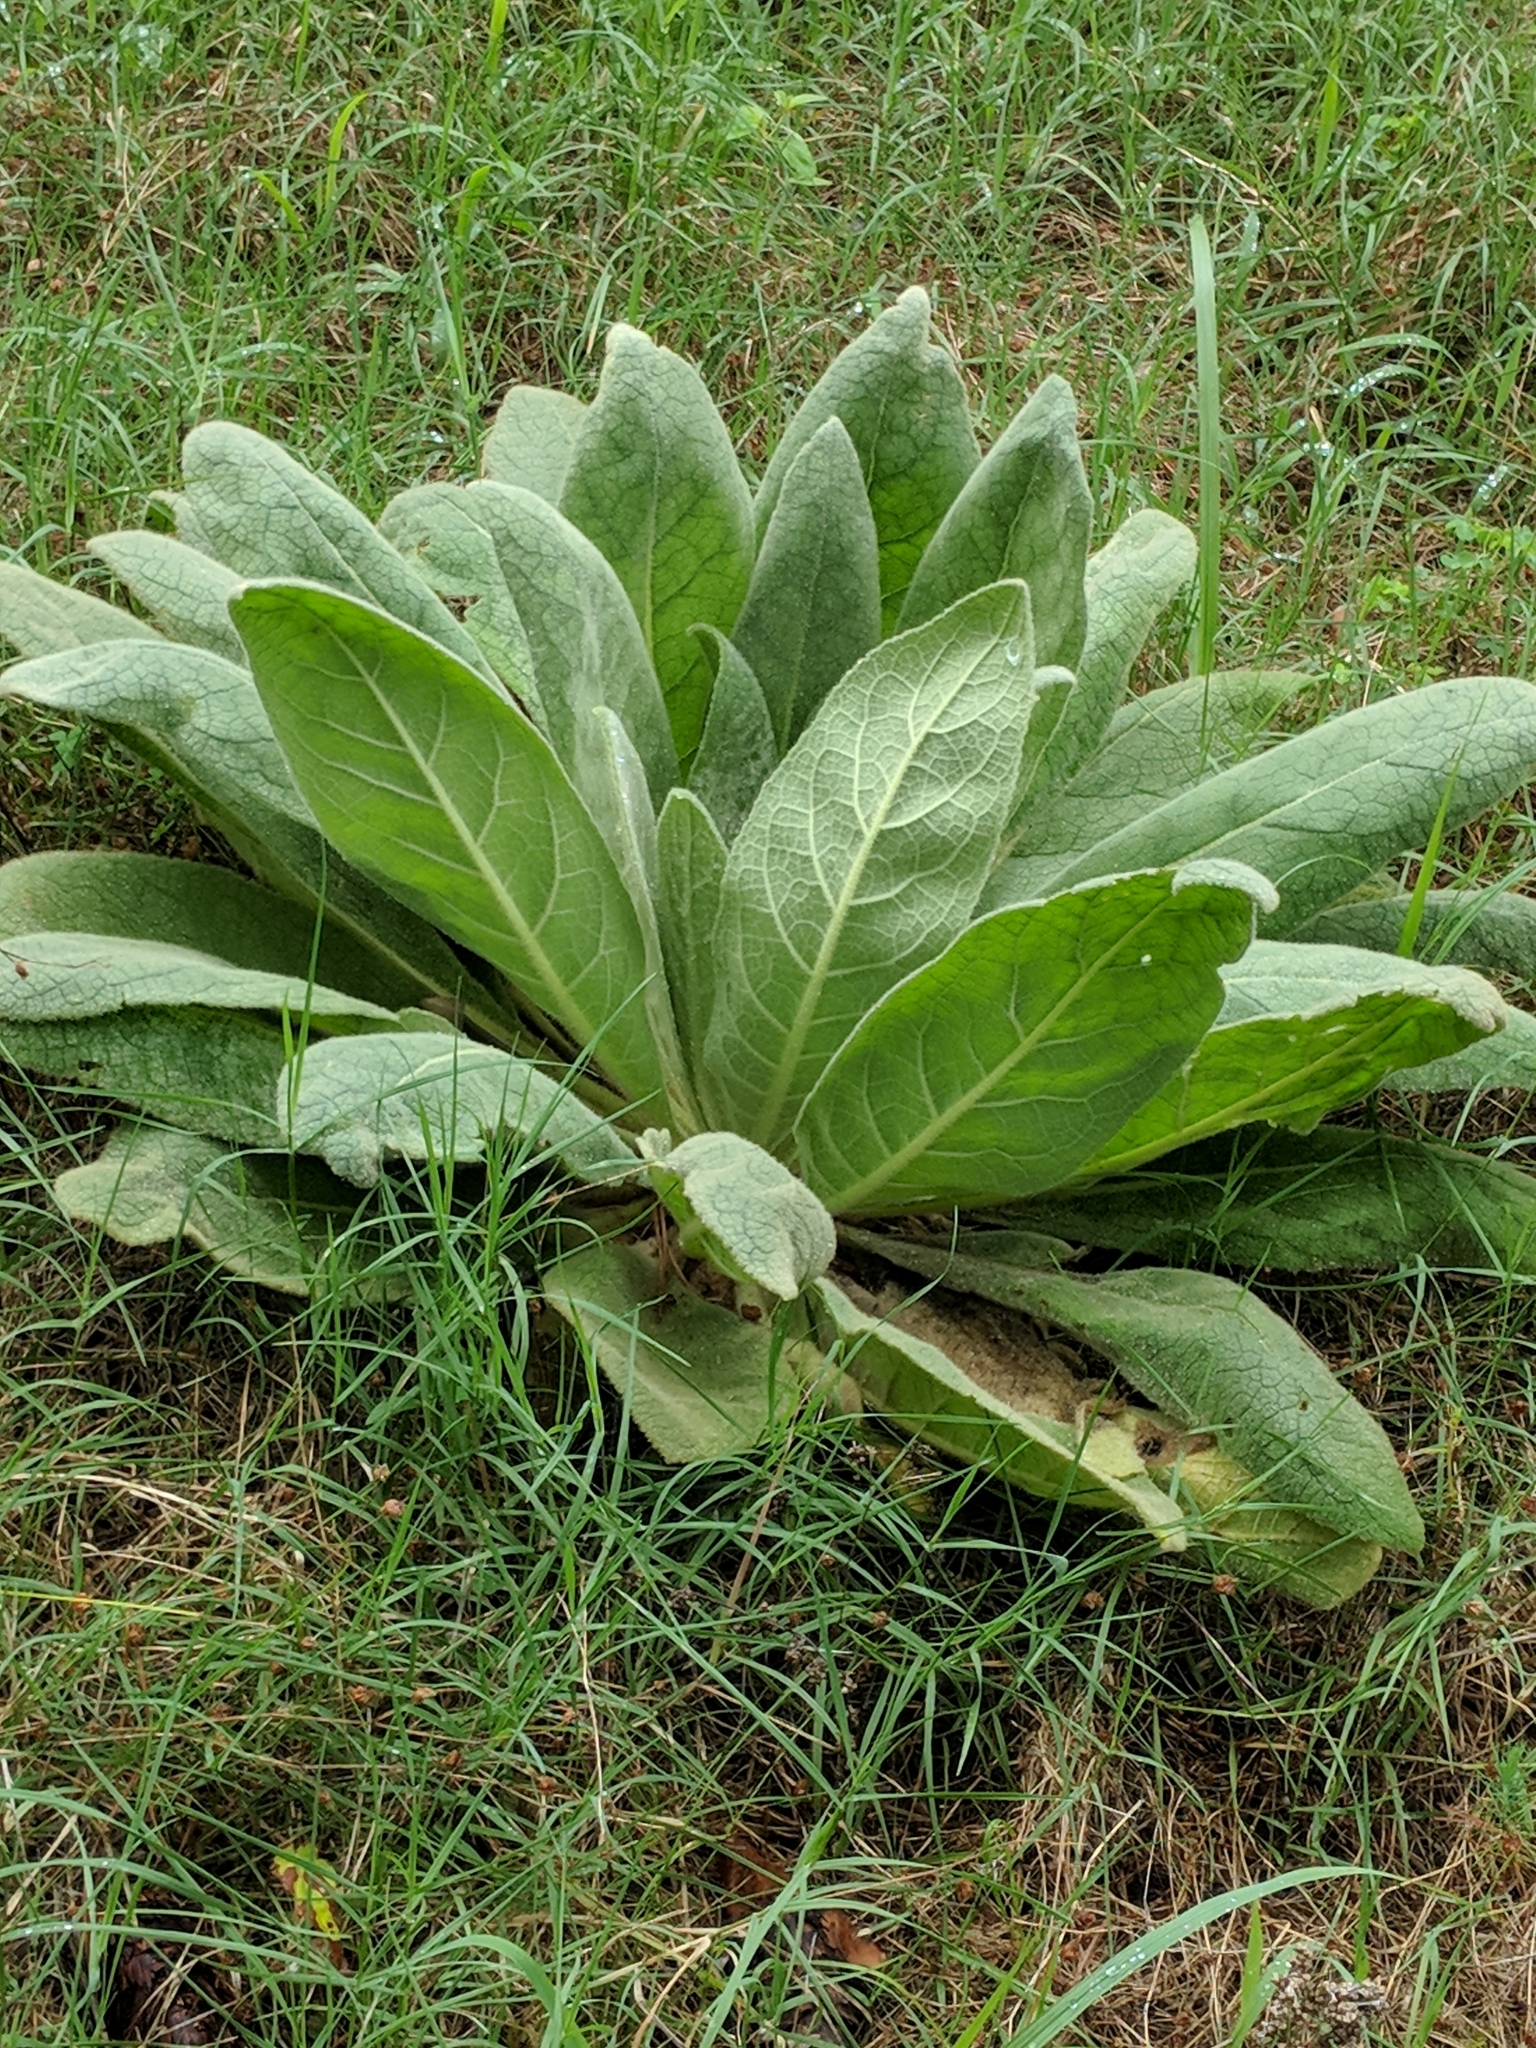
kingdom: Plantae
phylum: Tracheophyta
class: Magnoliopsida
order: Lamiales
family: Scrophulariaceae
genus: Verbascum
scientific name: Verbascum thapsus
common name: Common mullein
